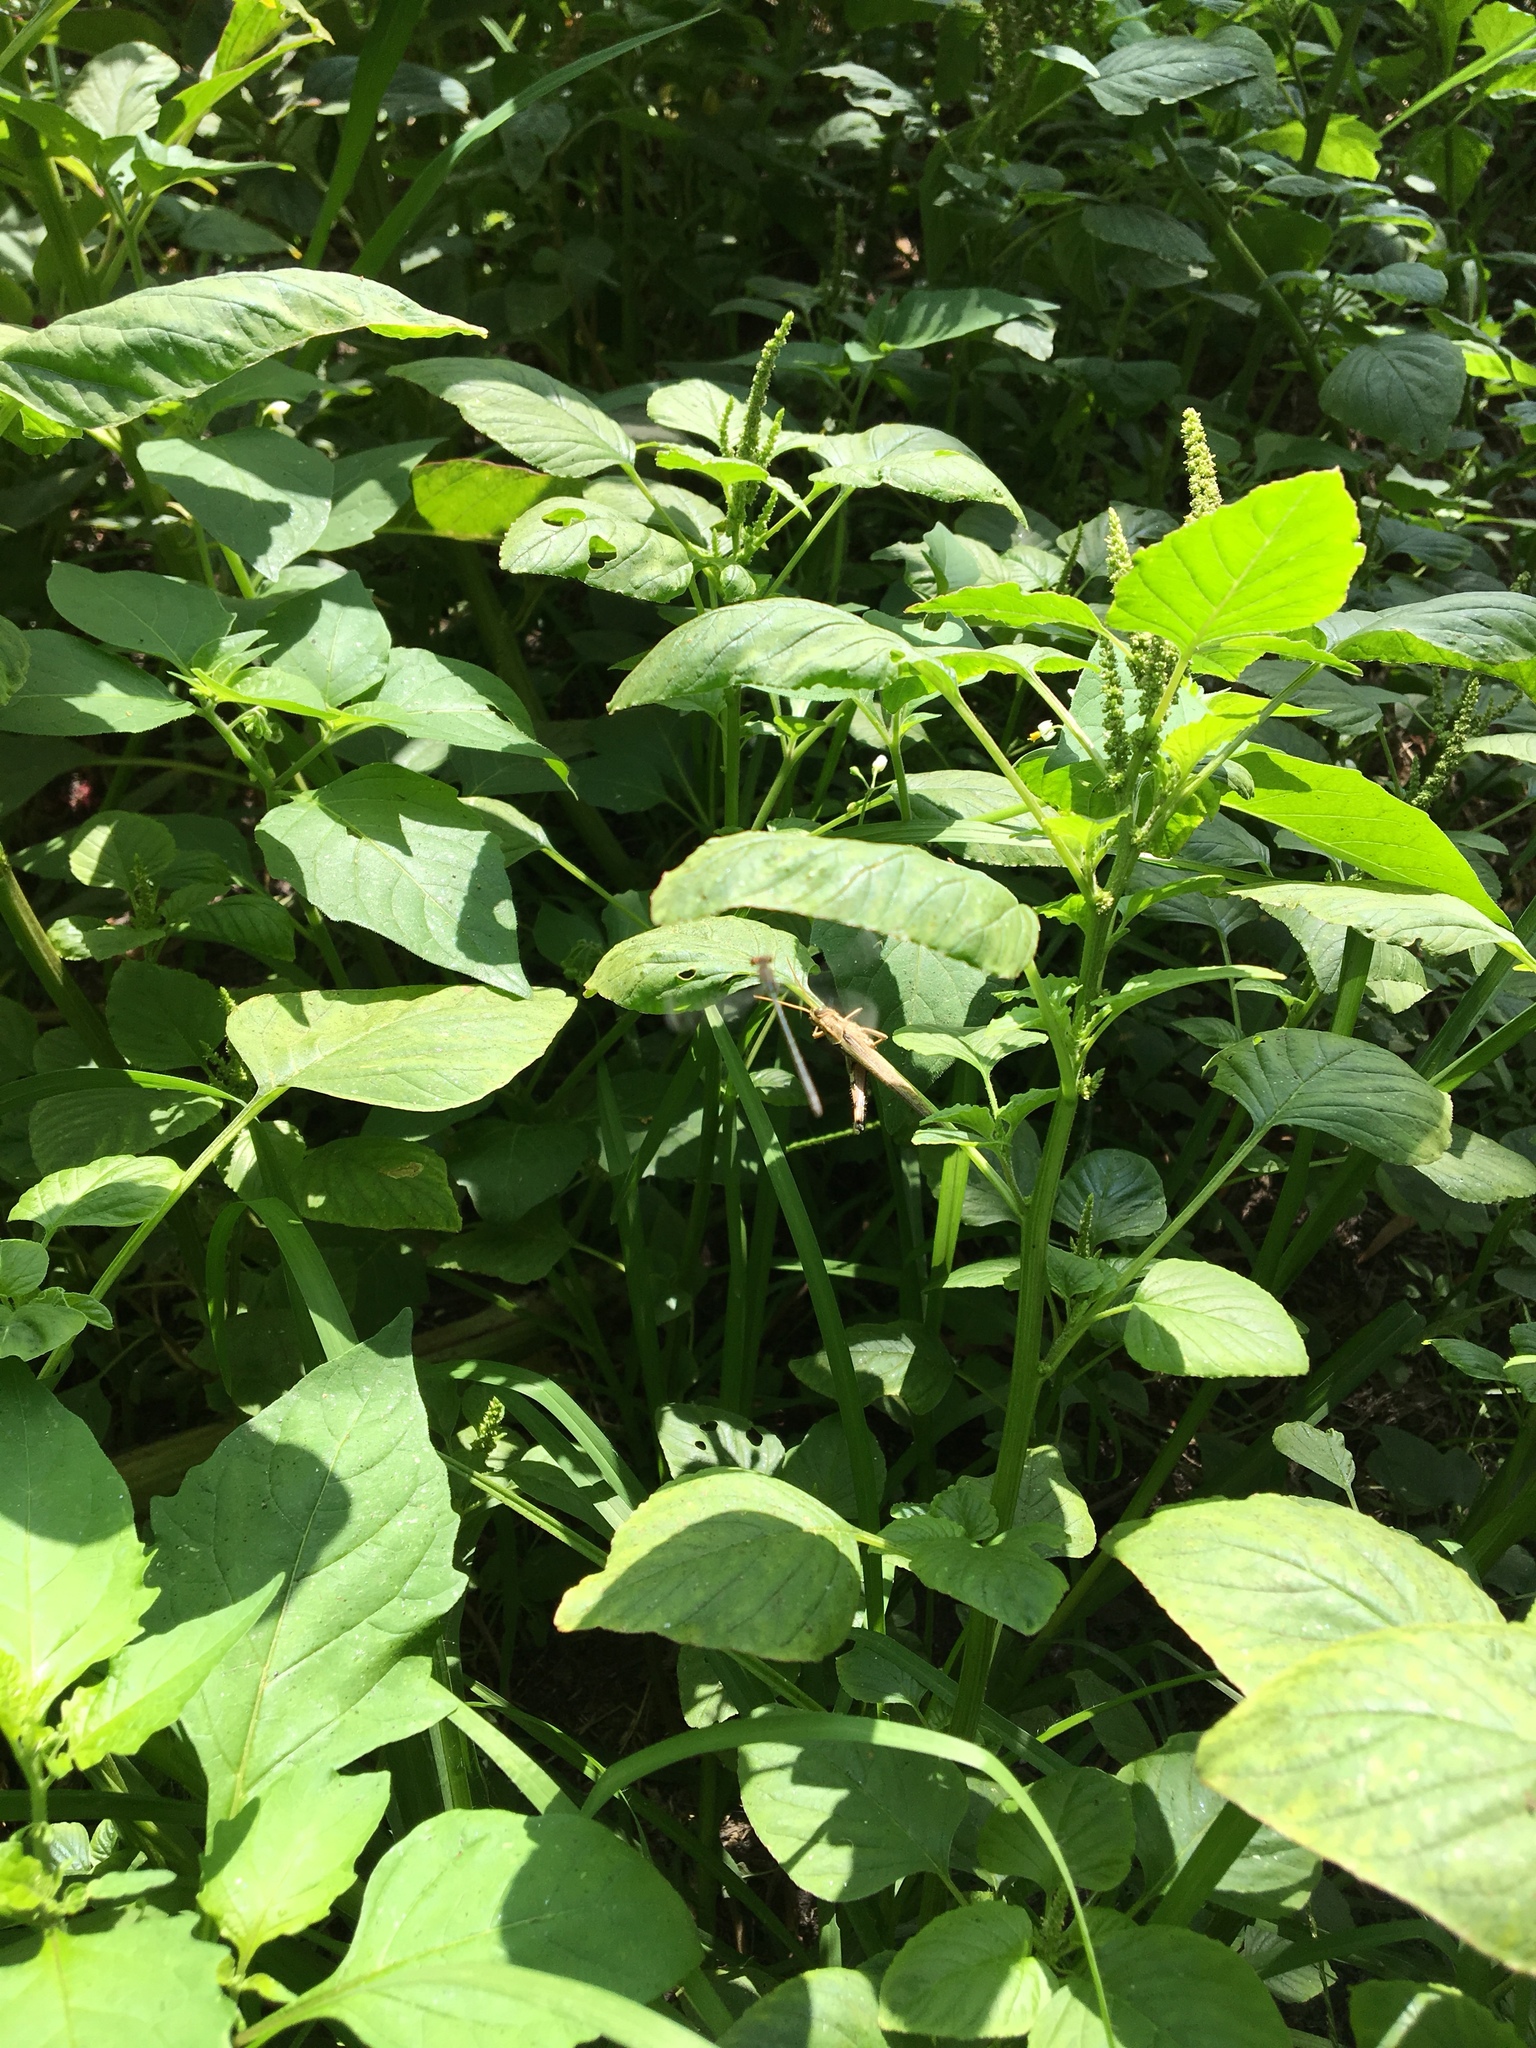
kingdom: Animalia
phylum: Arthropoda
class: Insecta
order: Orthoptera
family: Acrididae
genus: Schistocerca
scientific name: Schistocerca nitens
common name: Vagrant grasshopper
